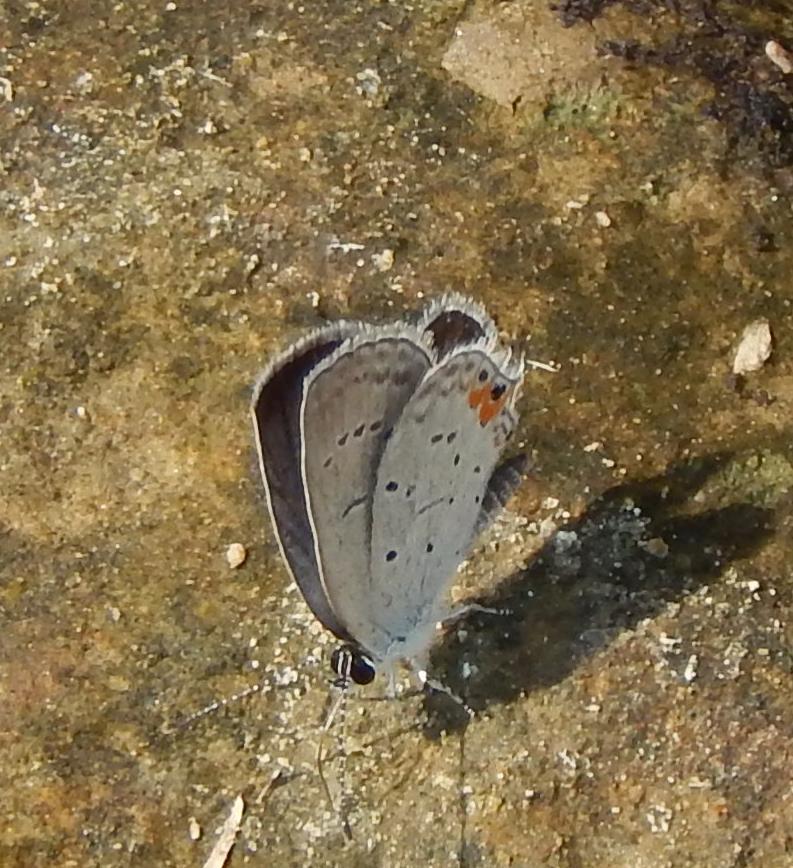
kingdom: Animalia
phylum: Arthropoda
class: Insecta
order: Lepidoptera
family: Lycaenidae
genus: Elkalyce
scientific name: Elkalyce comyntas
